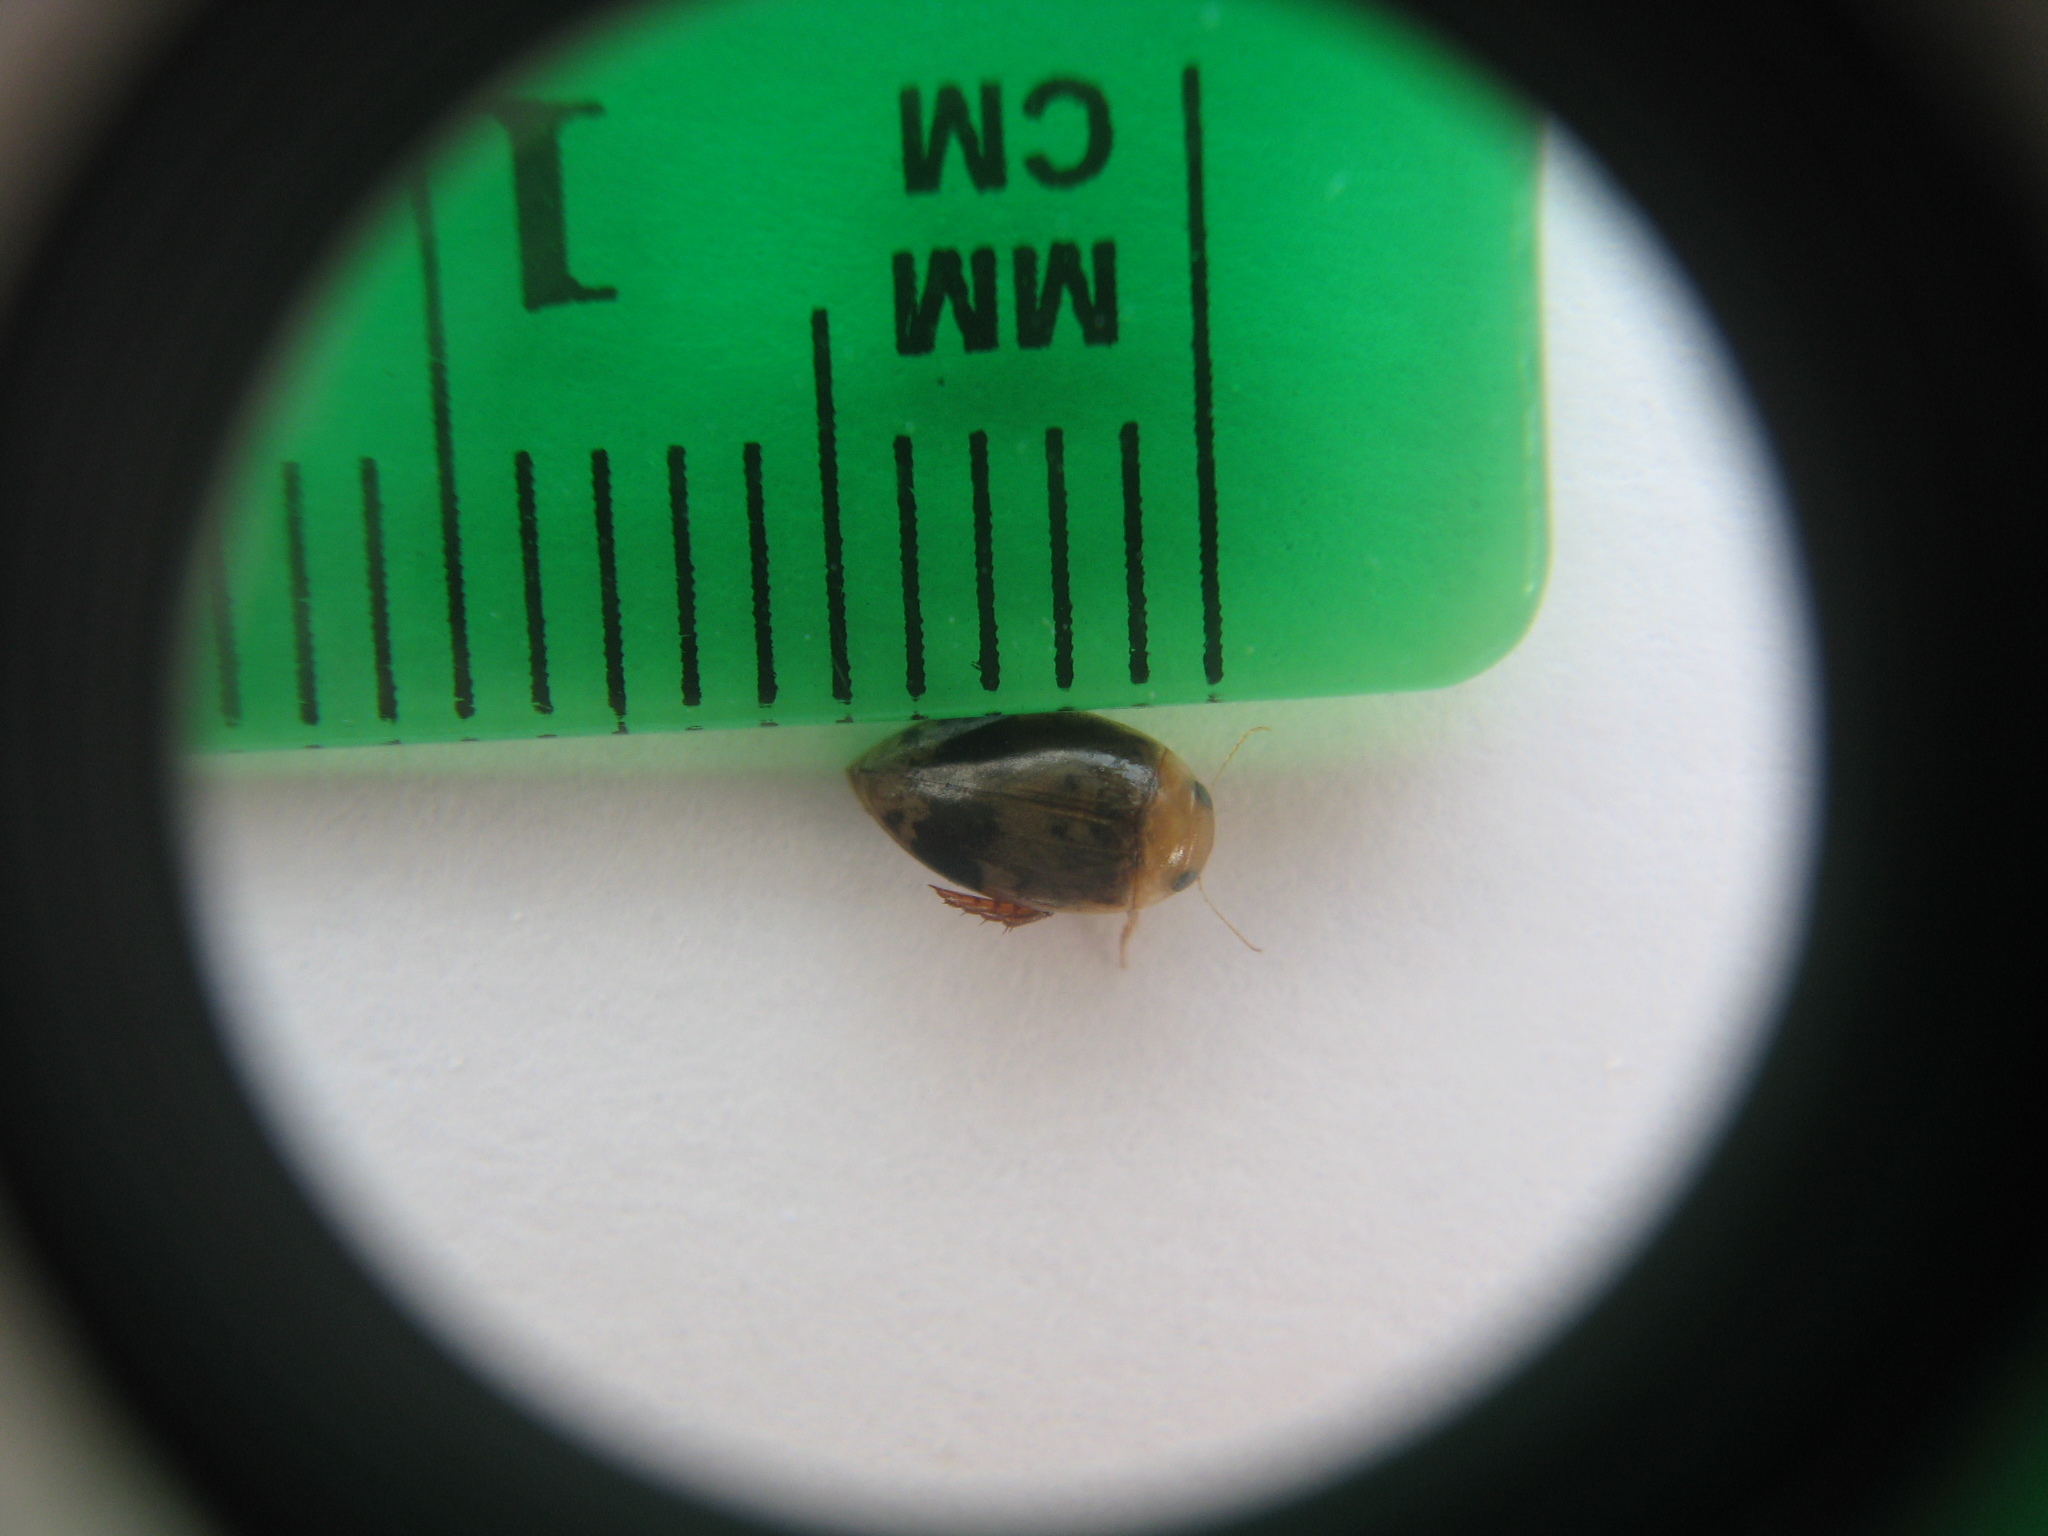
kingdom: Animalia
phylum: Arthropoda
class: Insecta
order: Coleoptera
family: Dytiscidae
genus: Laccophilus
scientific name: Laccophilus fasciatus
